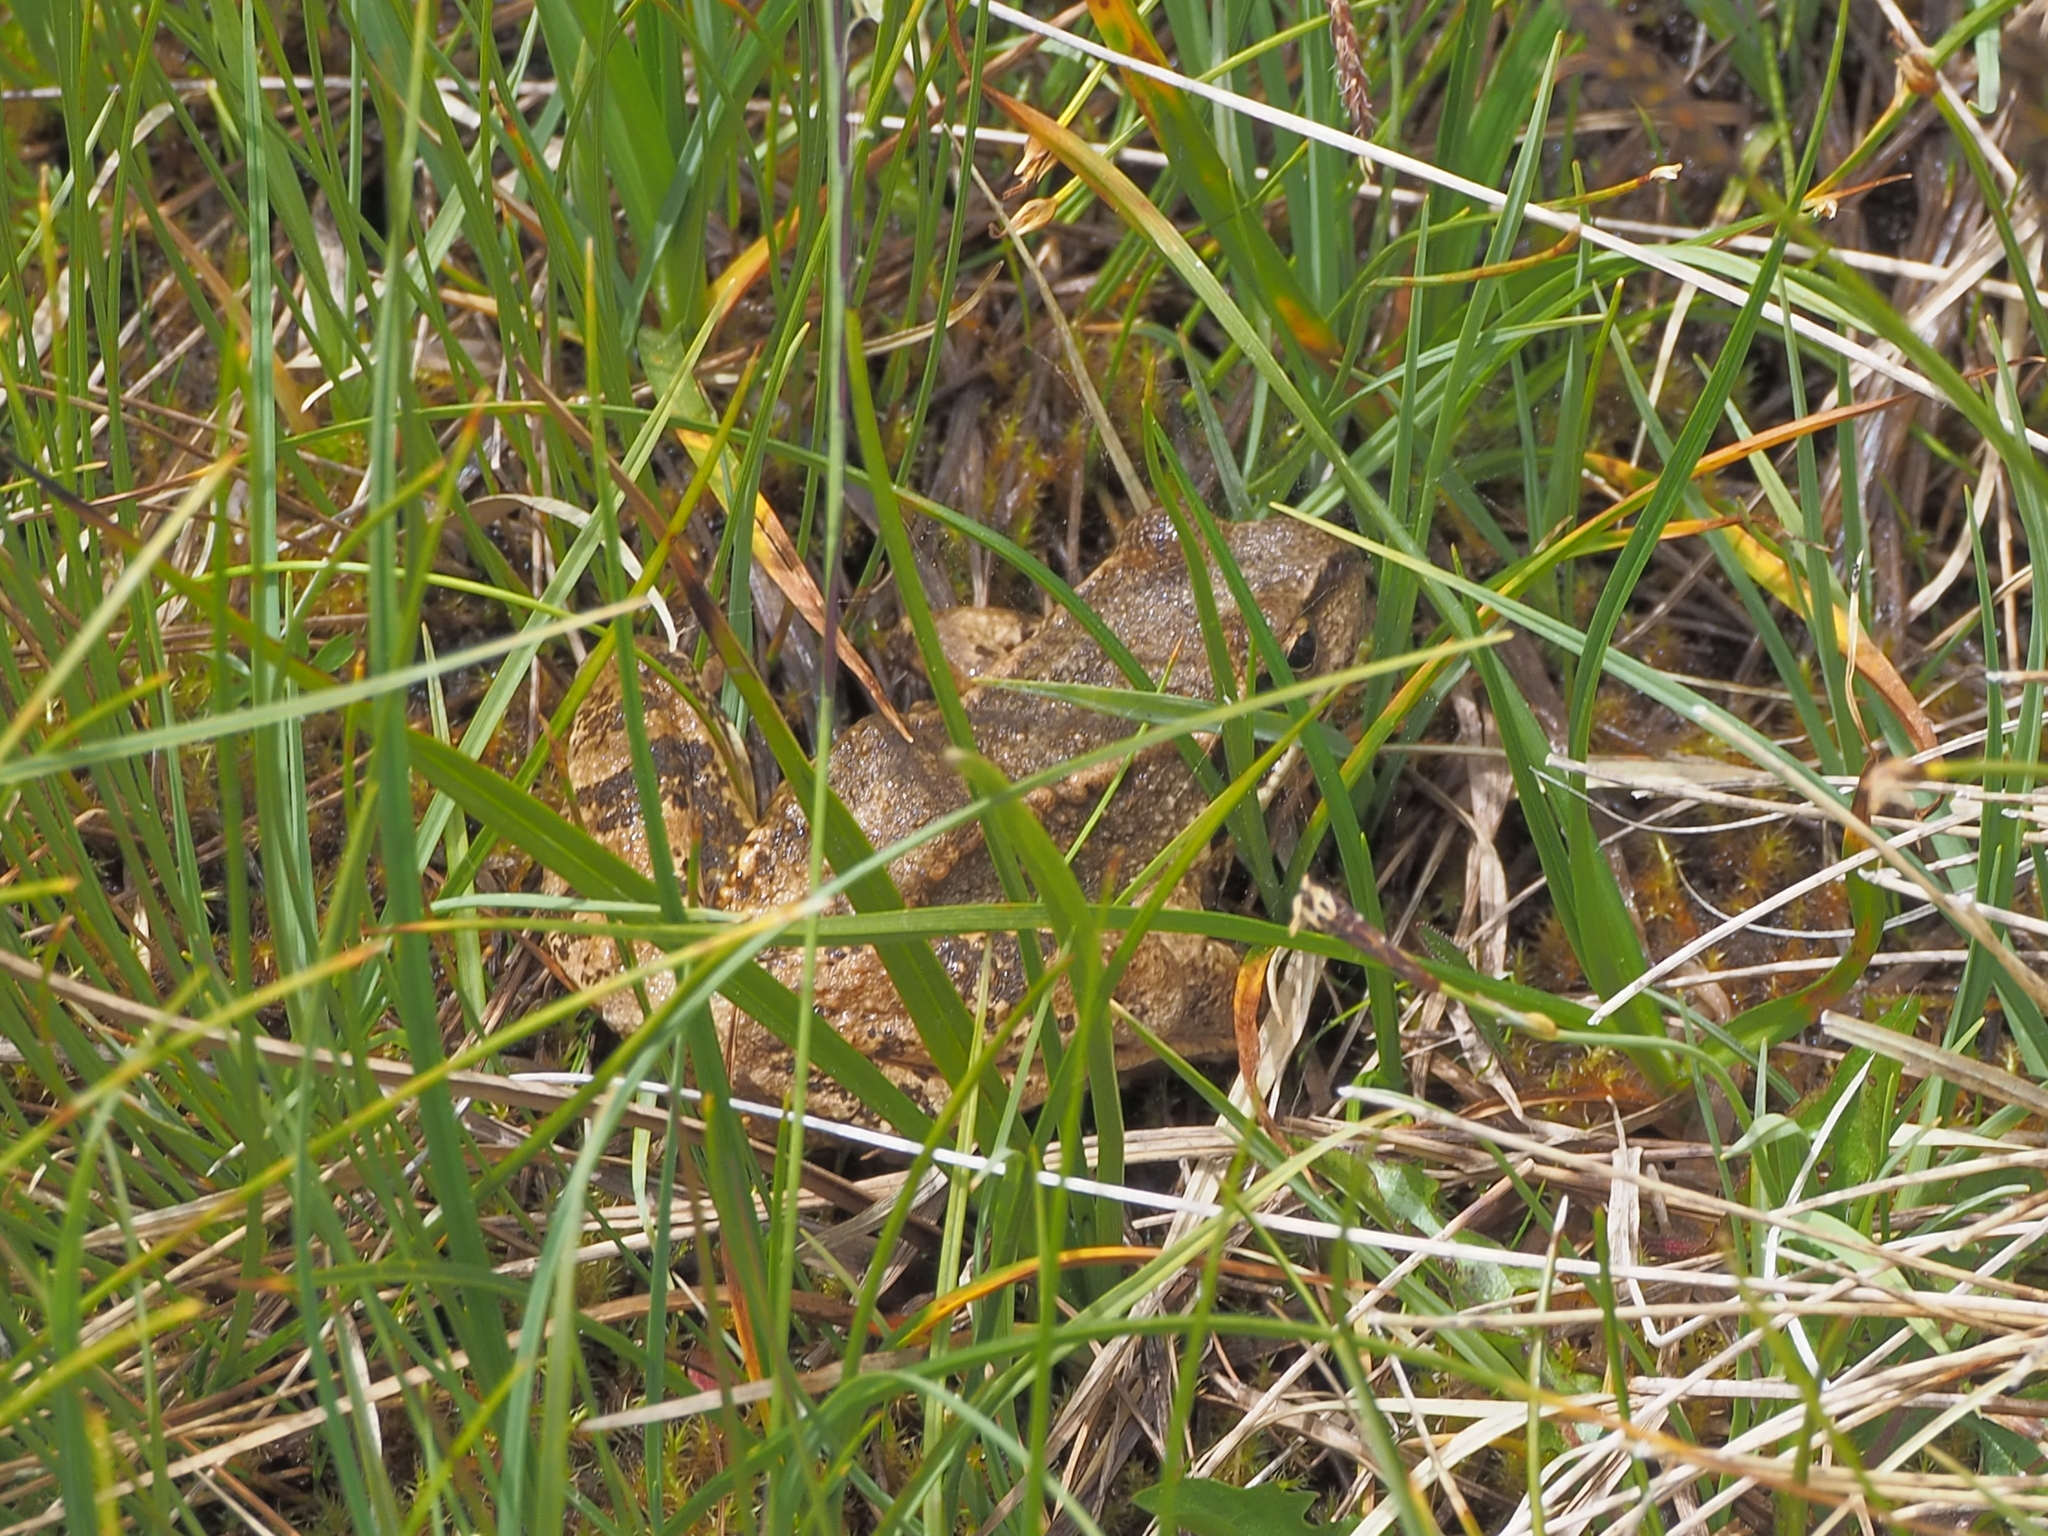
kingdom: Animalia
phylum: Chordata
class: Amphibia
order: Anura
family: Ranidae
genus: Rana
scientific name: Rana temporaria
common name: Common frog
